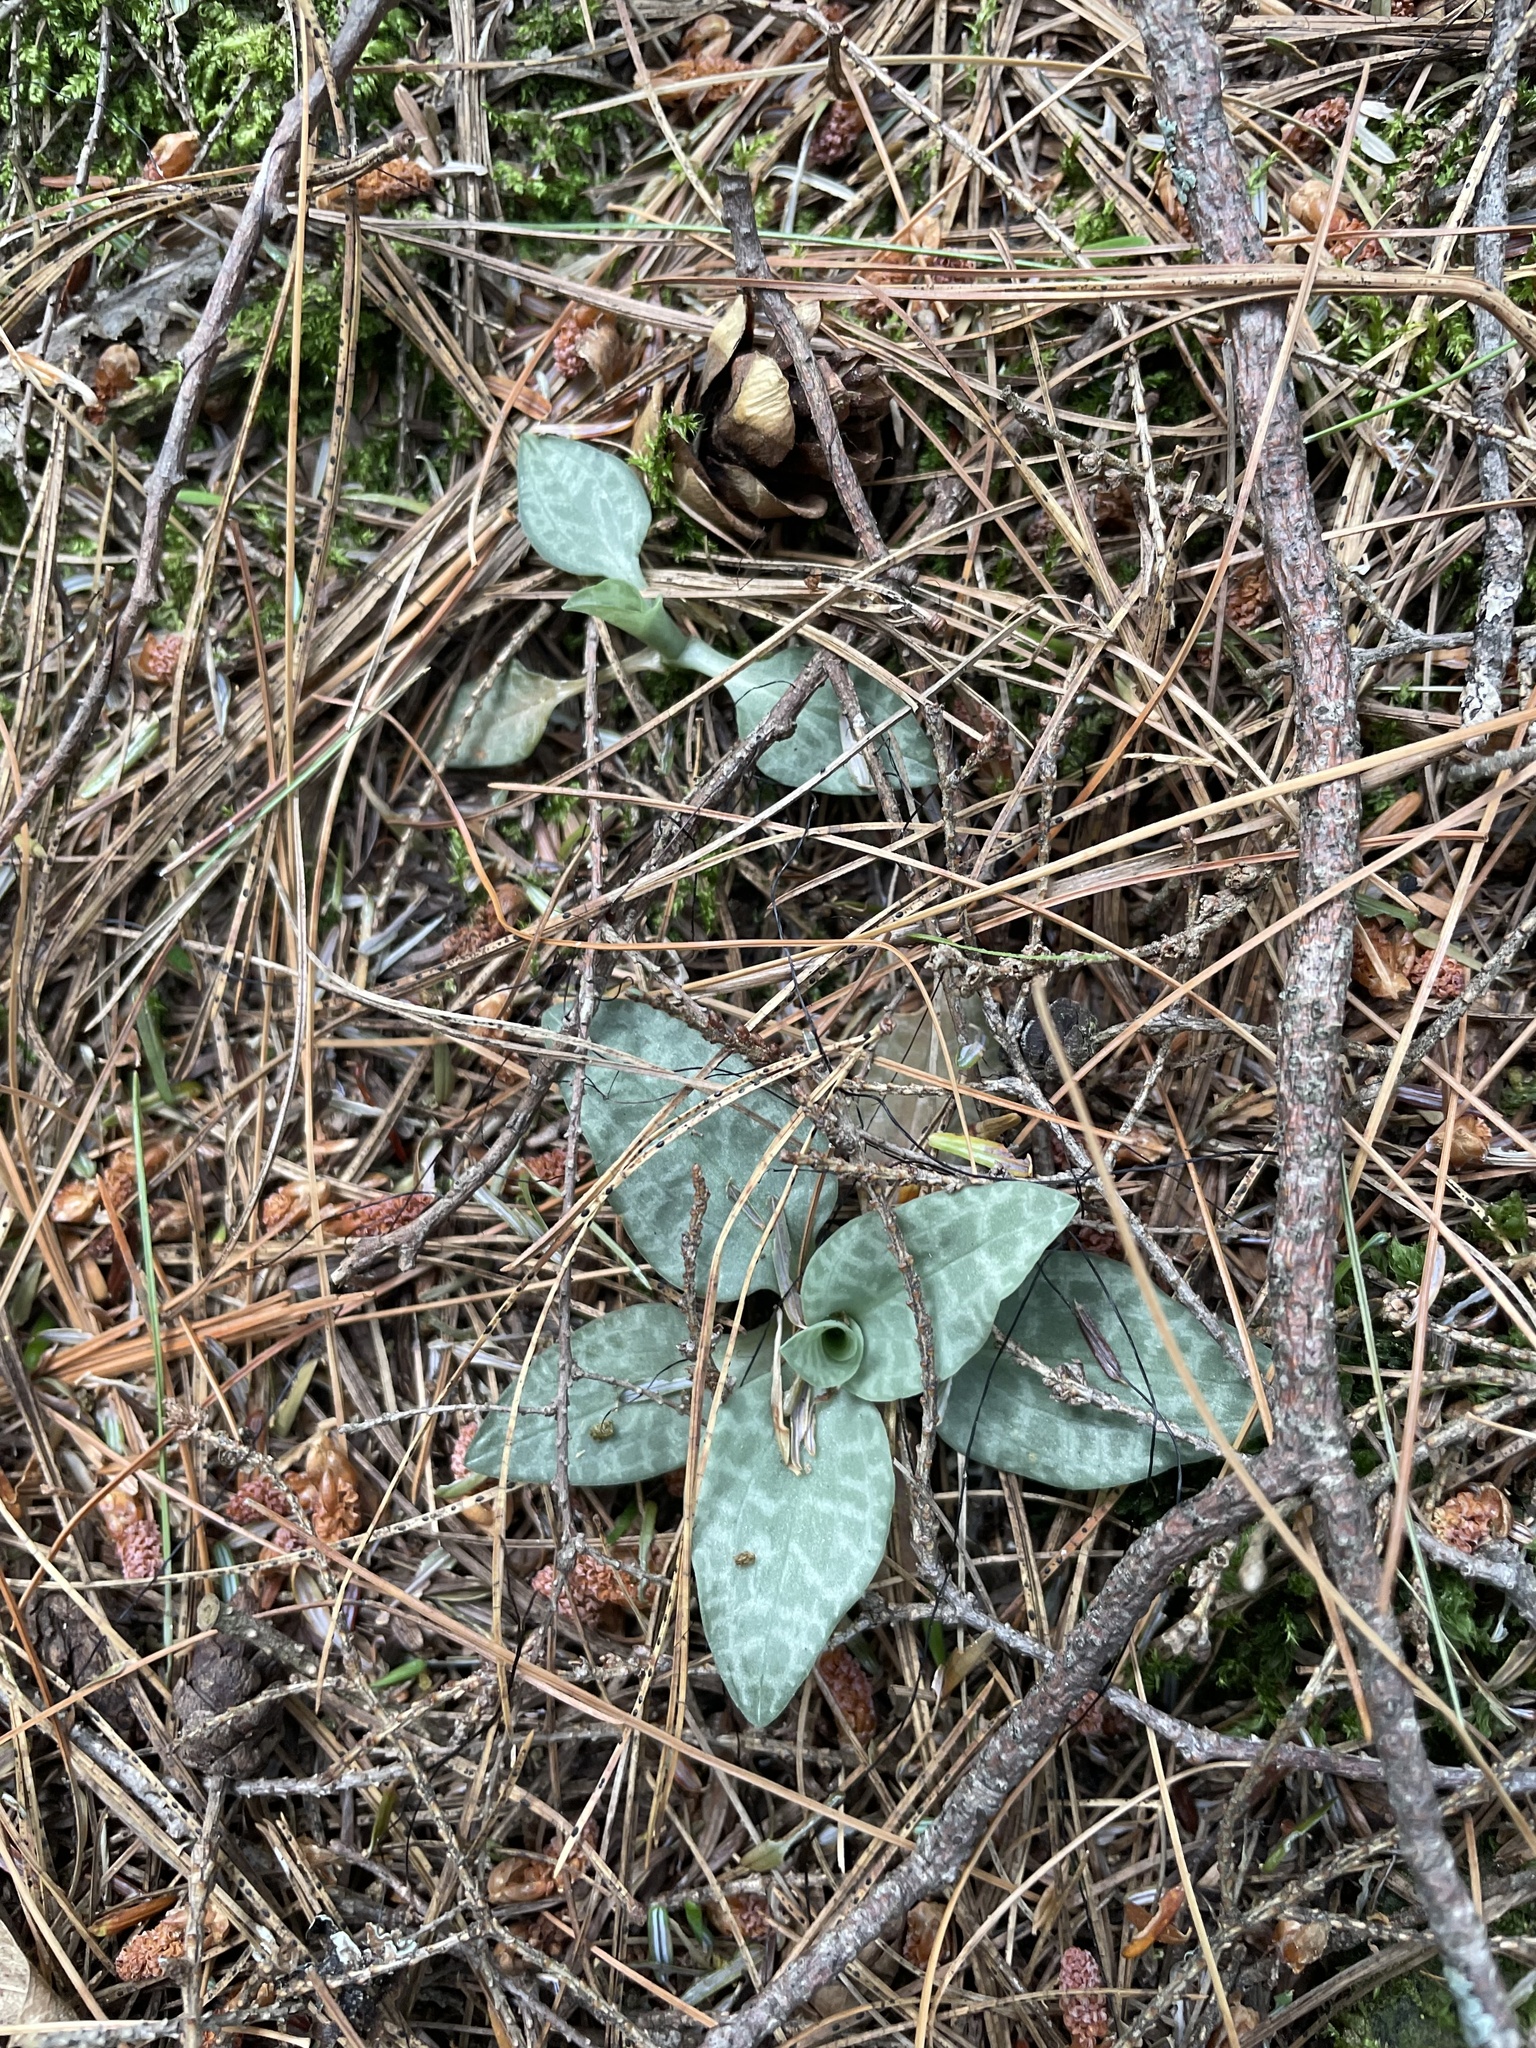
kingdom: Plantae
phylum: Tracheophyta
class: Liliopsida
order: Asparagales
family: Orchidaceae
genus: Goodyera
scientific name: Goodyera tesselata
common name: Checkered rattlesnake-plantain
